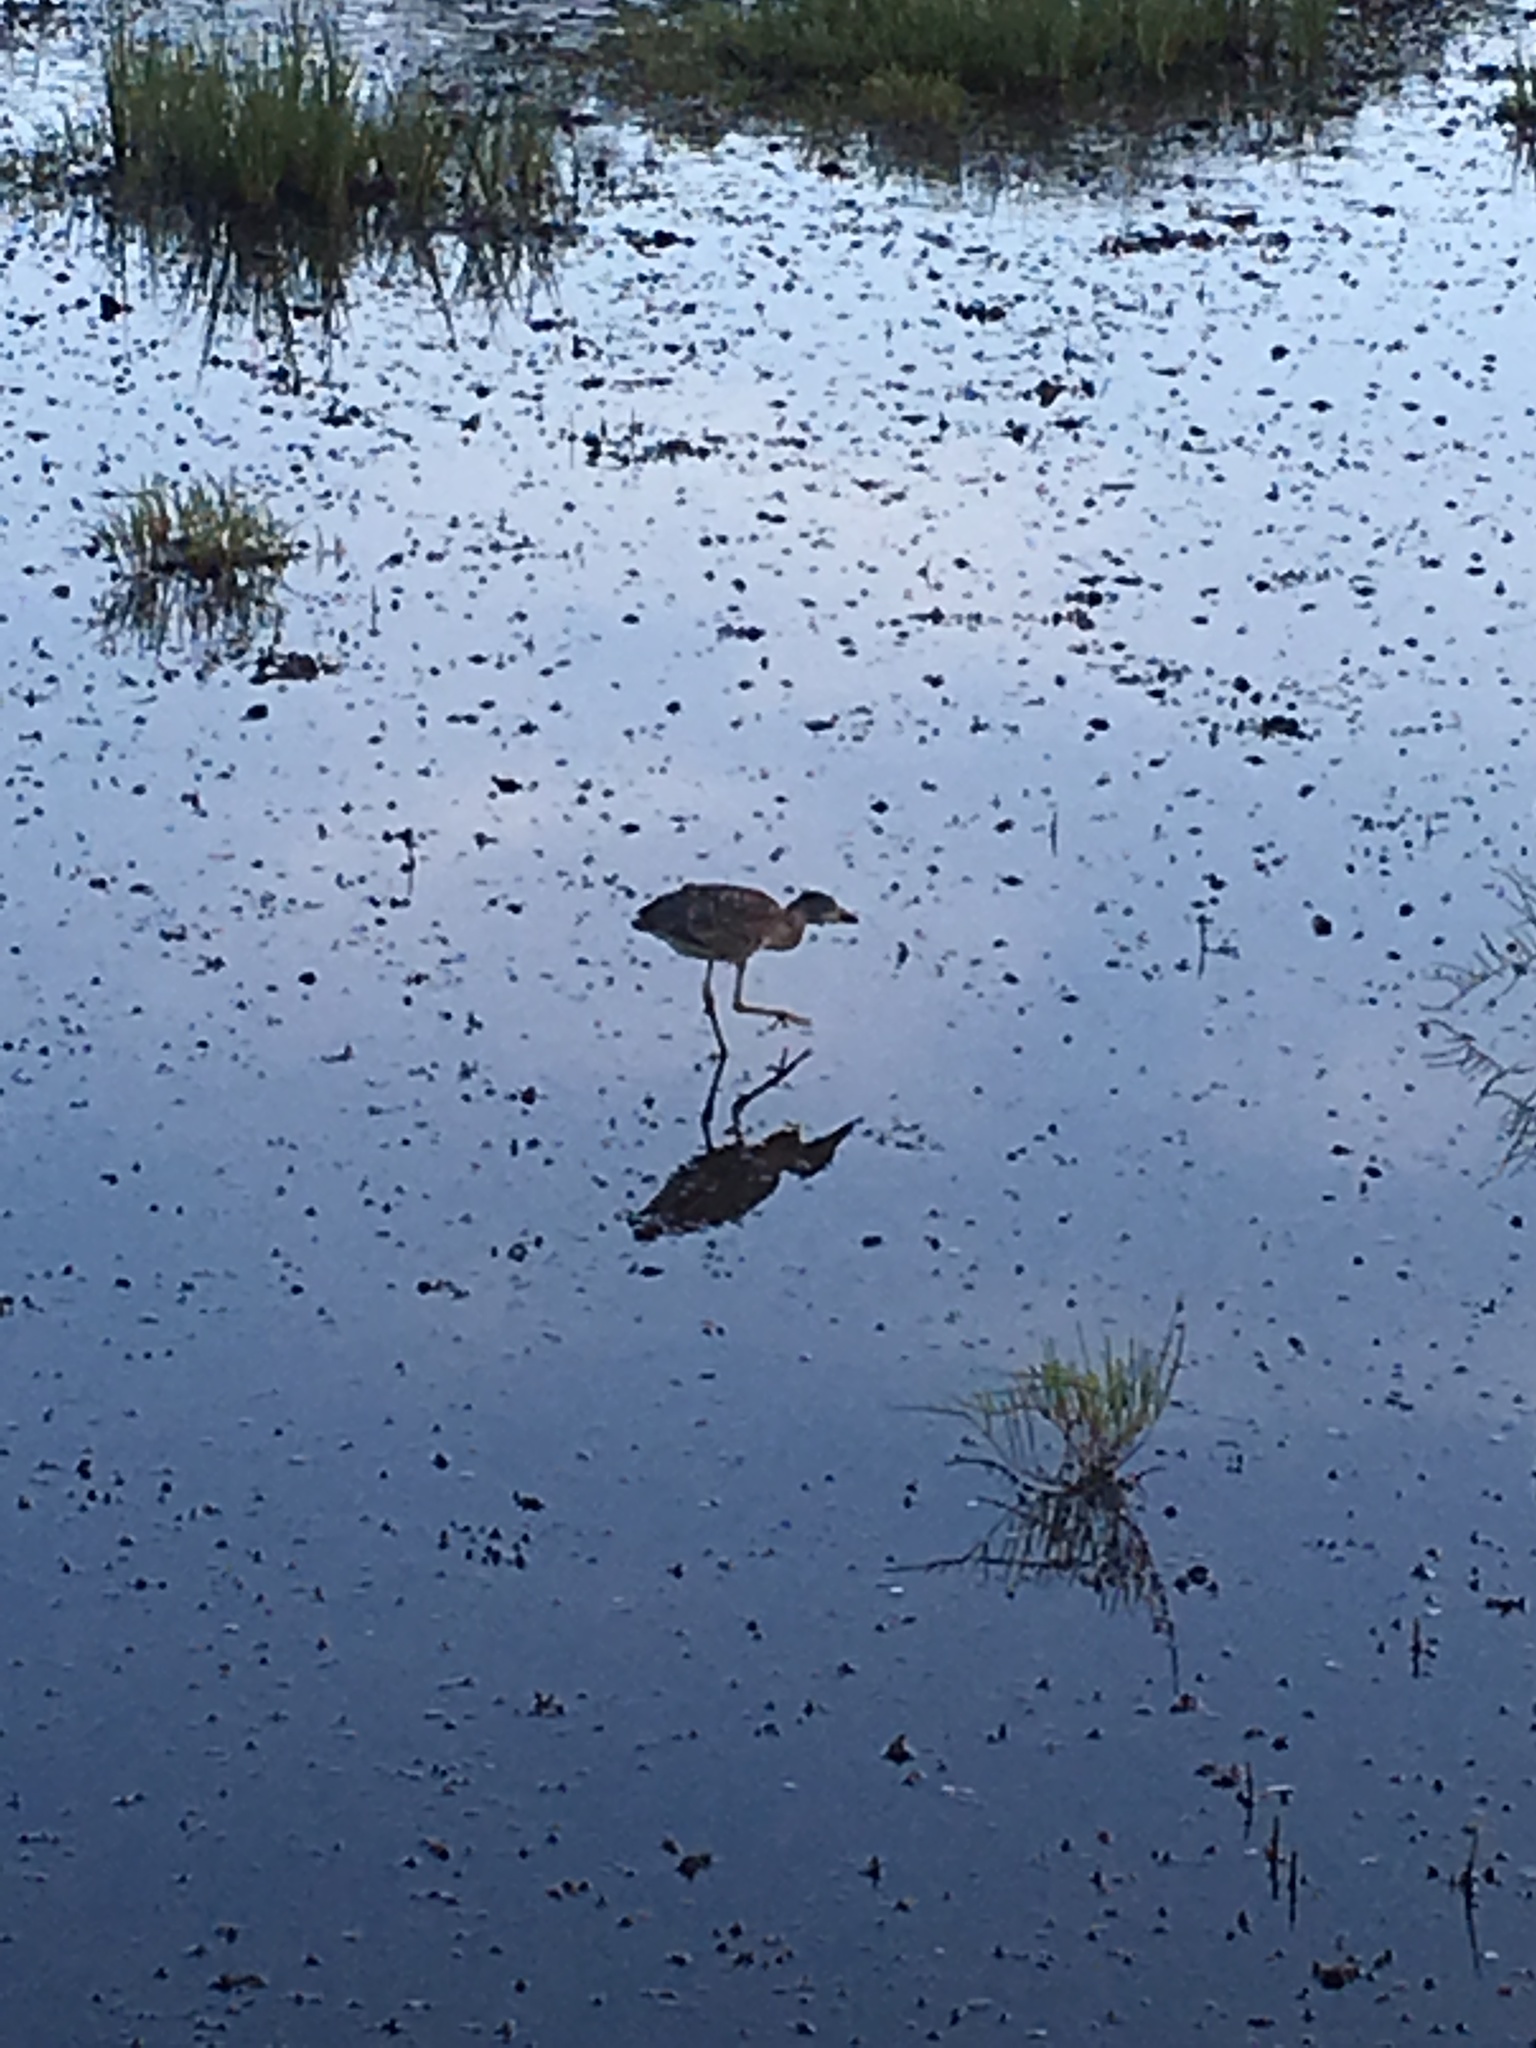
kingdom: Animalia
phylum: Chordata
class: Aves
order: Pelecaniformes
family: Ardeidae
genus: Nycticorax
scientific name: Nycticorax nycticorax
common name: Black-crowned night heron
